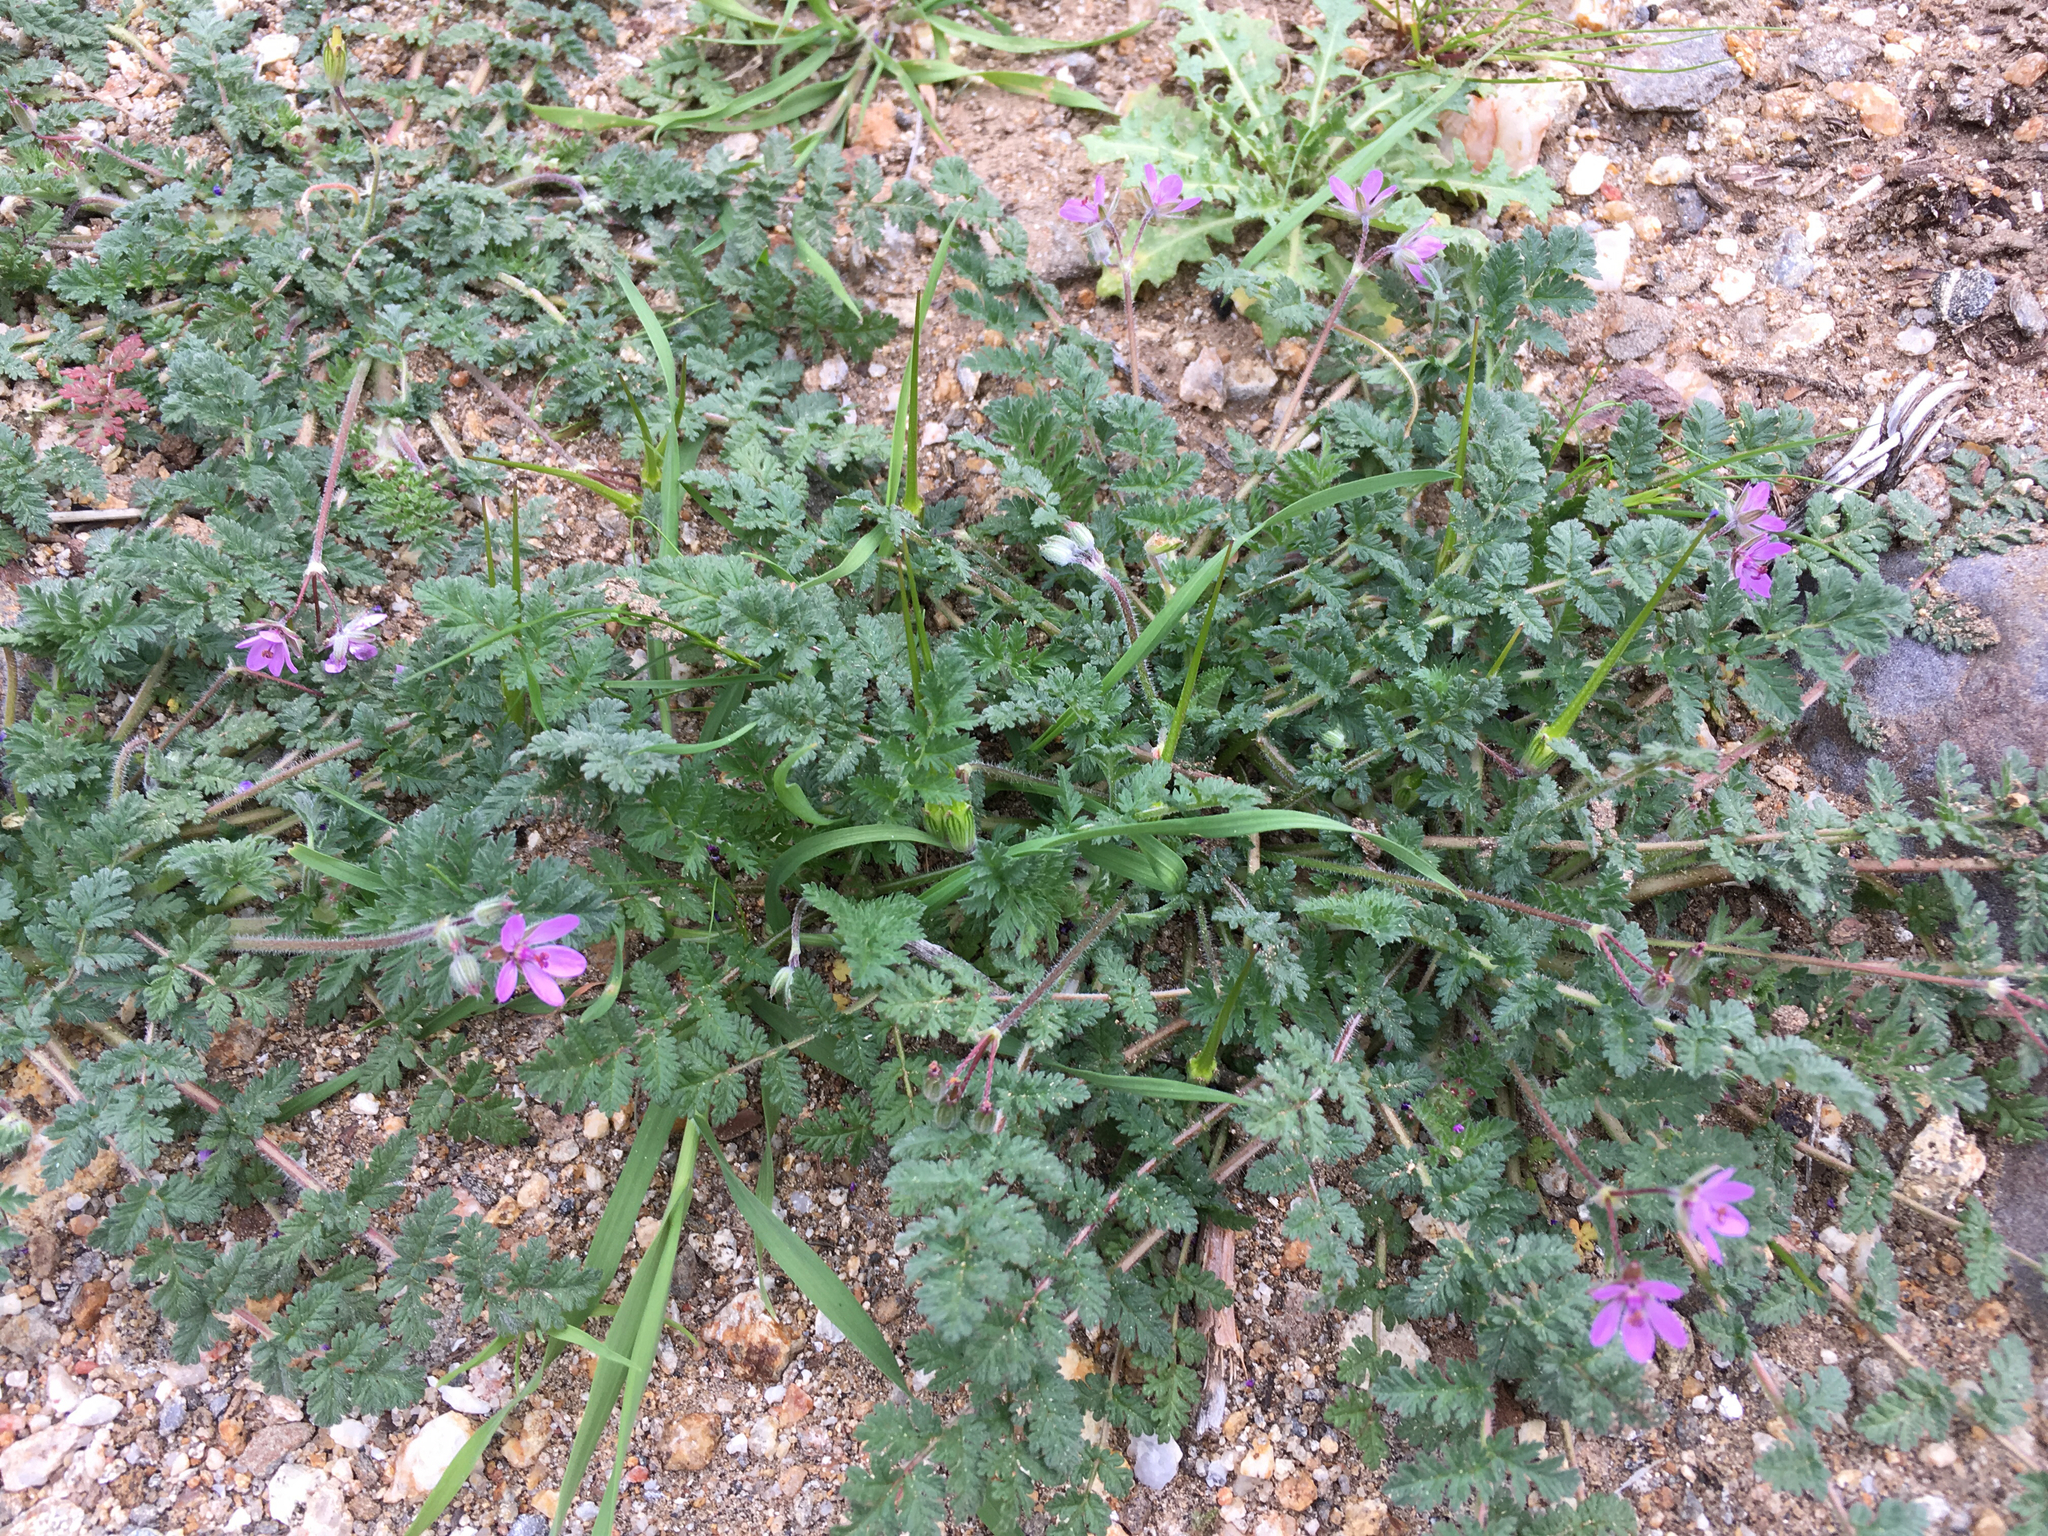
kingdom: Plantae
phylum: Tracheophyta
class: Magnoliopsida
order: Geraniales
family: Geraniaceae
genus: Erodium
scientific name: Erodium cicutarium
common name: Common stork's-bill
